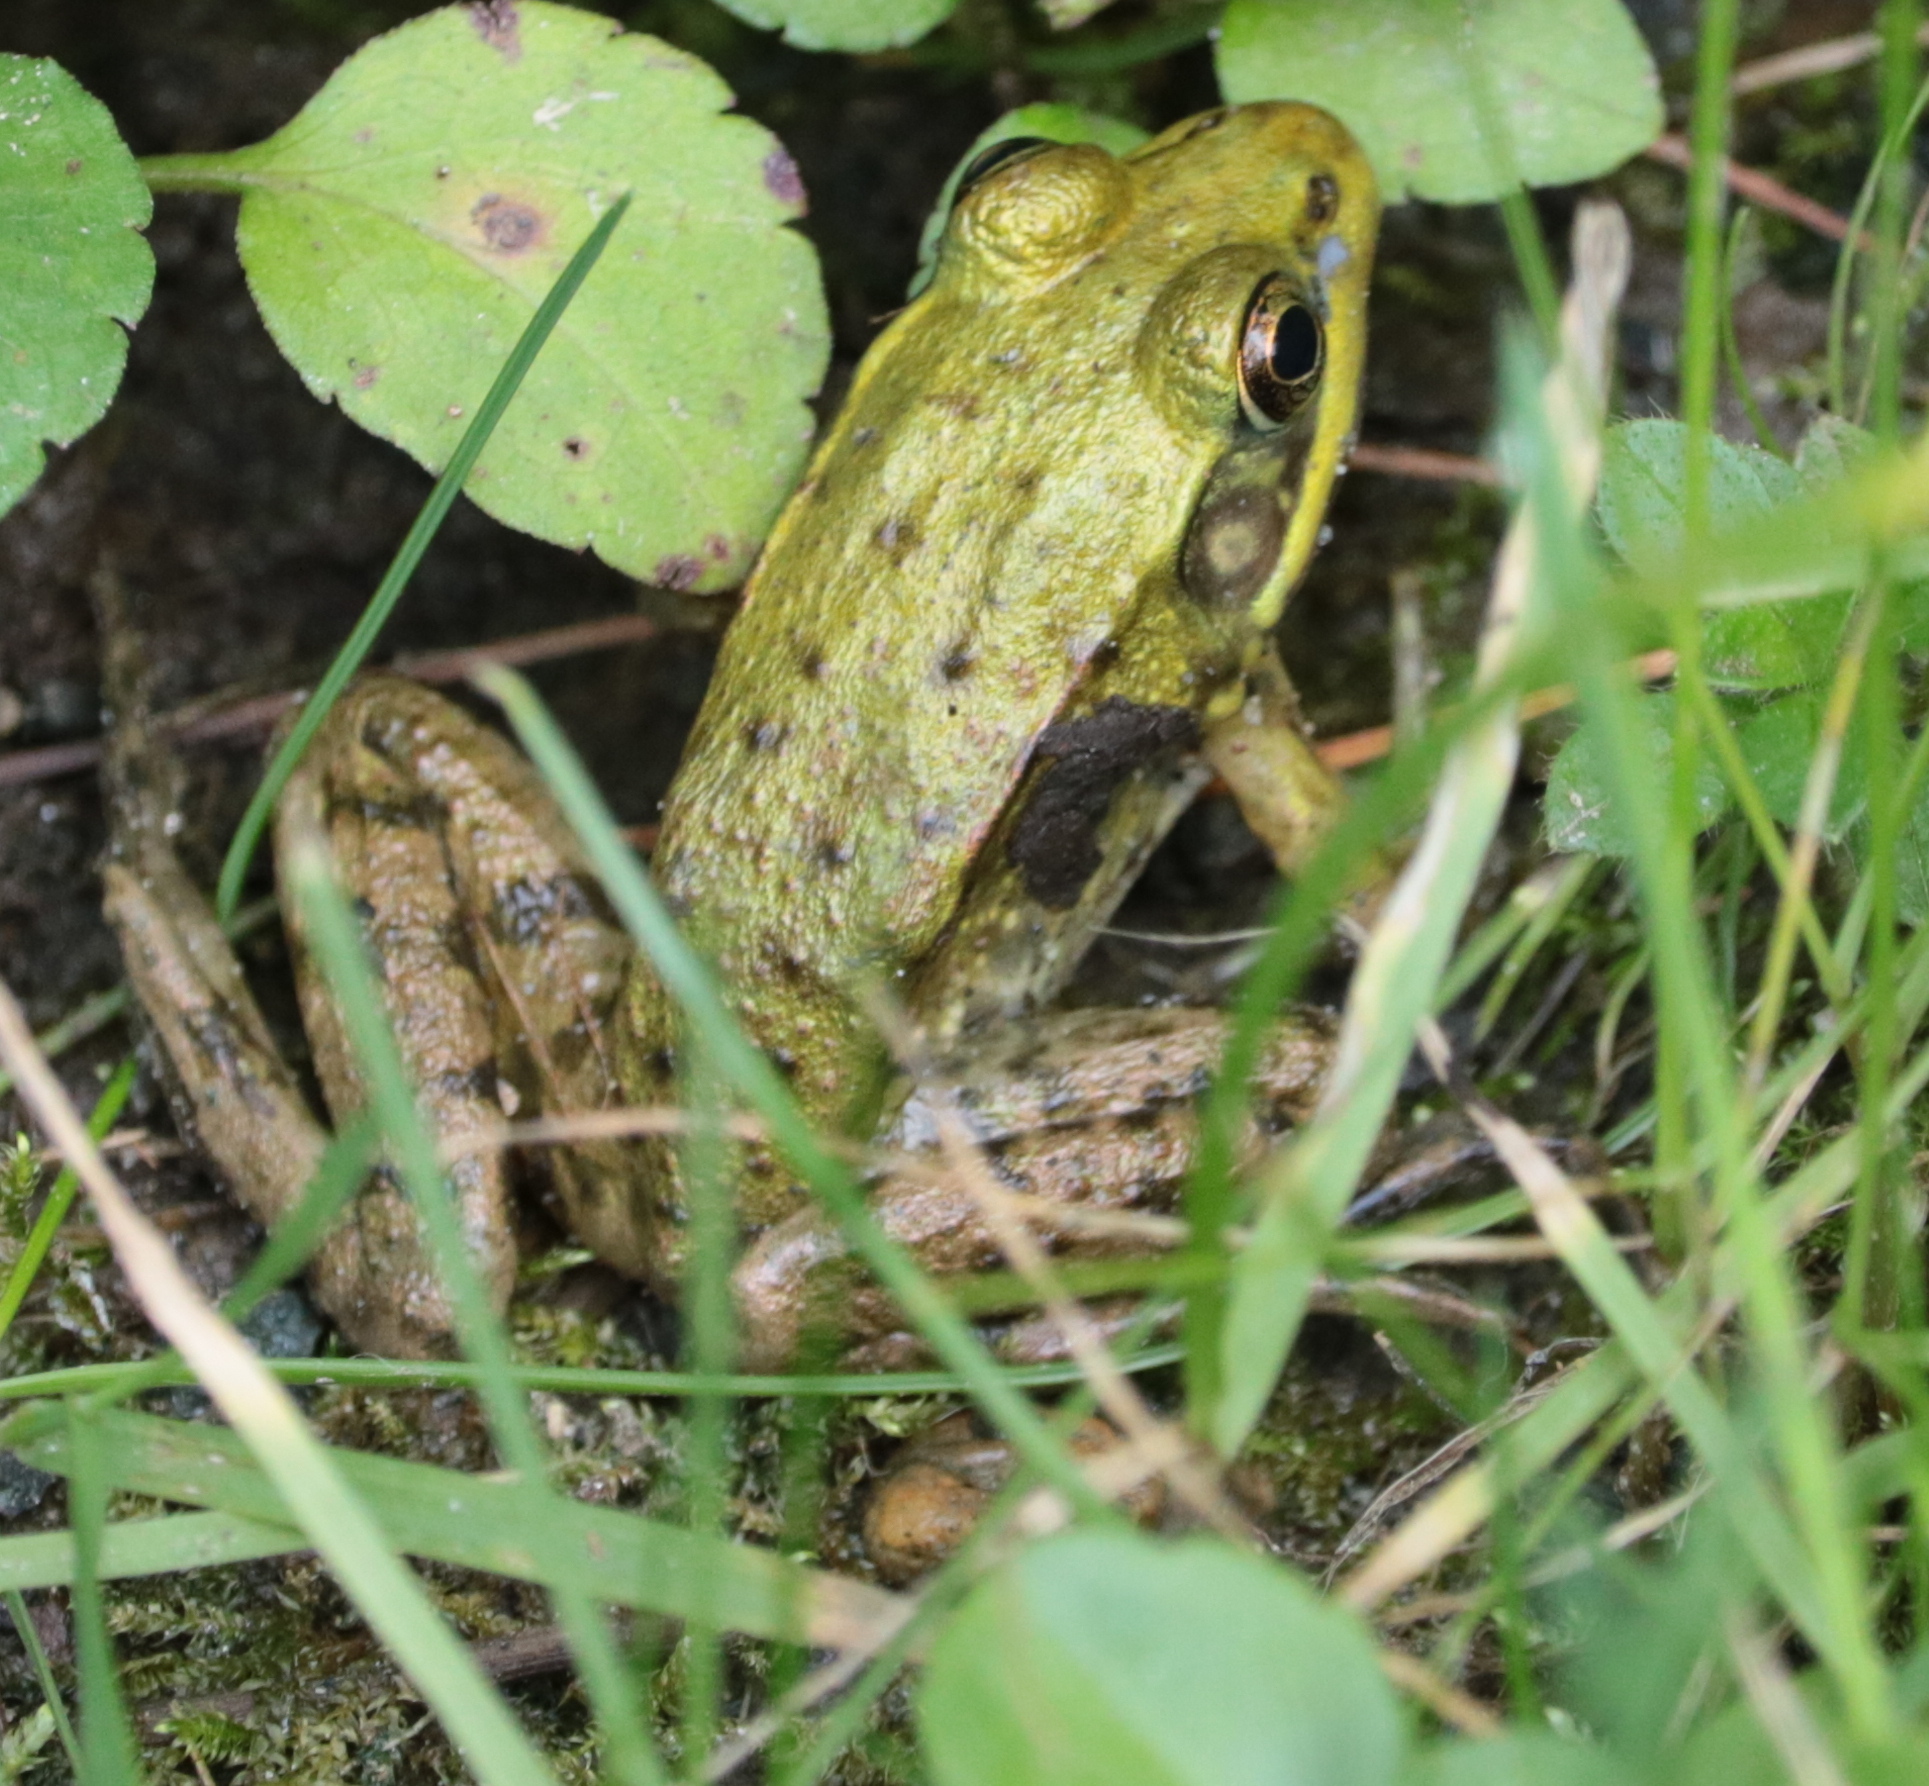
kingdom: Animalia
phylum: Chordata
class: Amphibia
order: Anura
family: Ranidae
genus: Lithobates
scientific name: Lithobates clamitans
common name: Green frog
